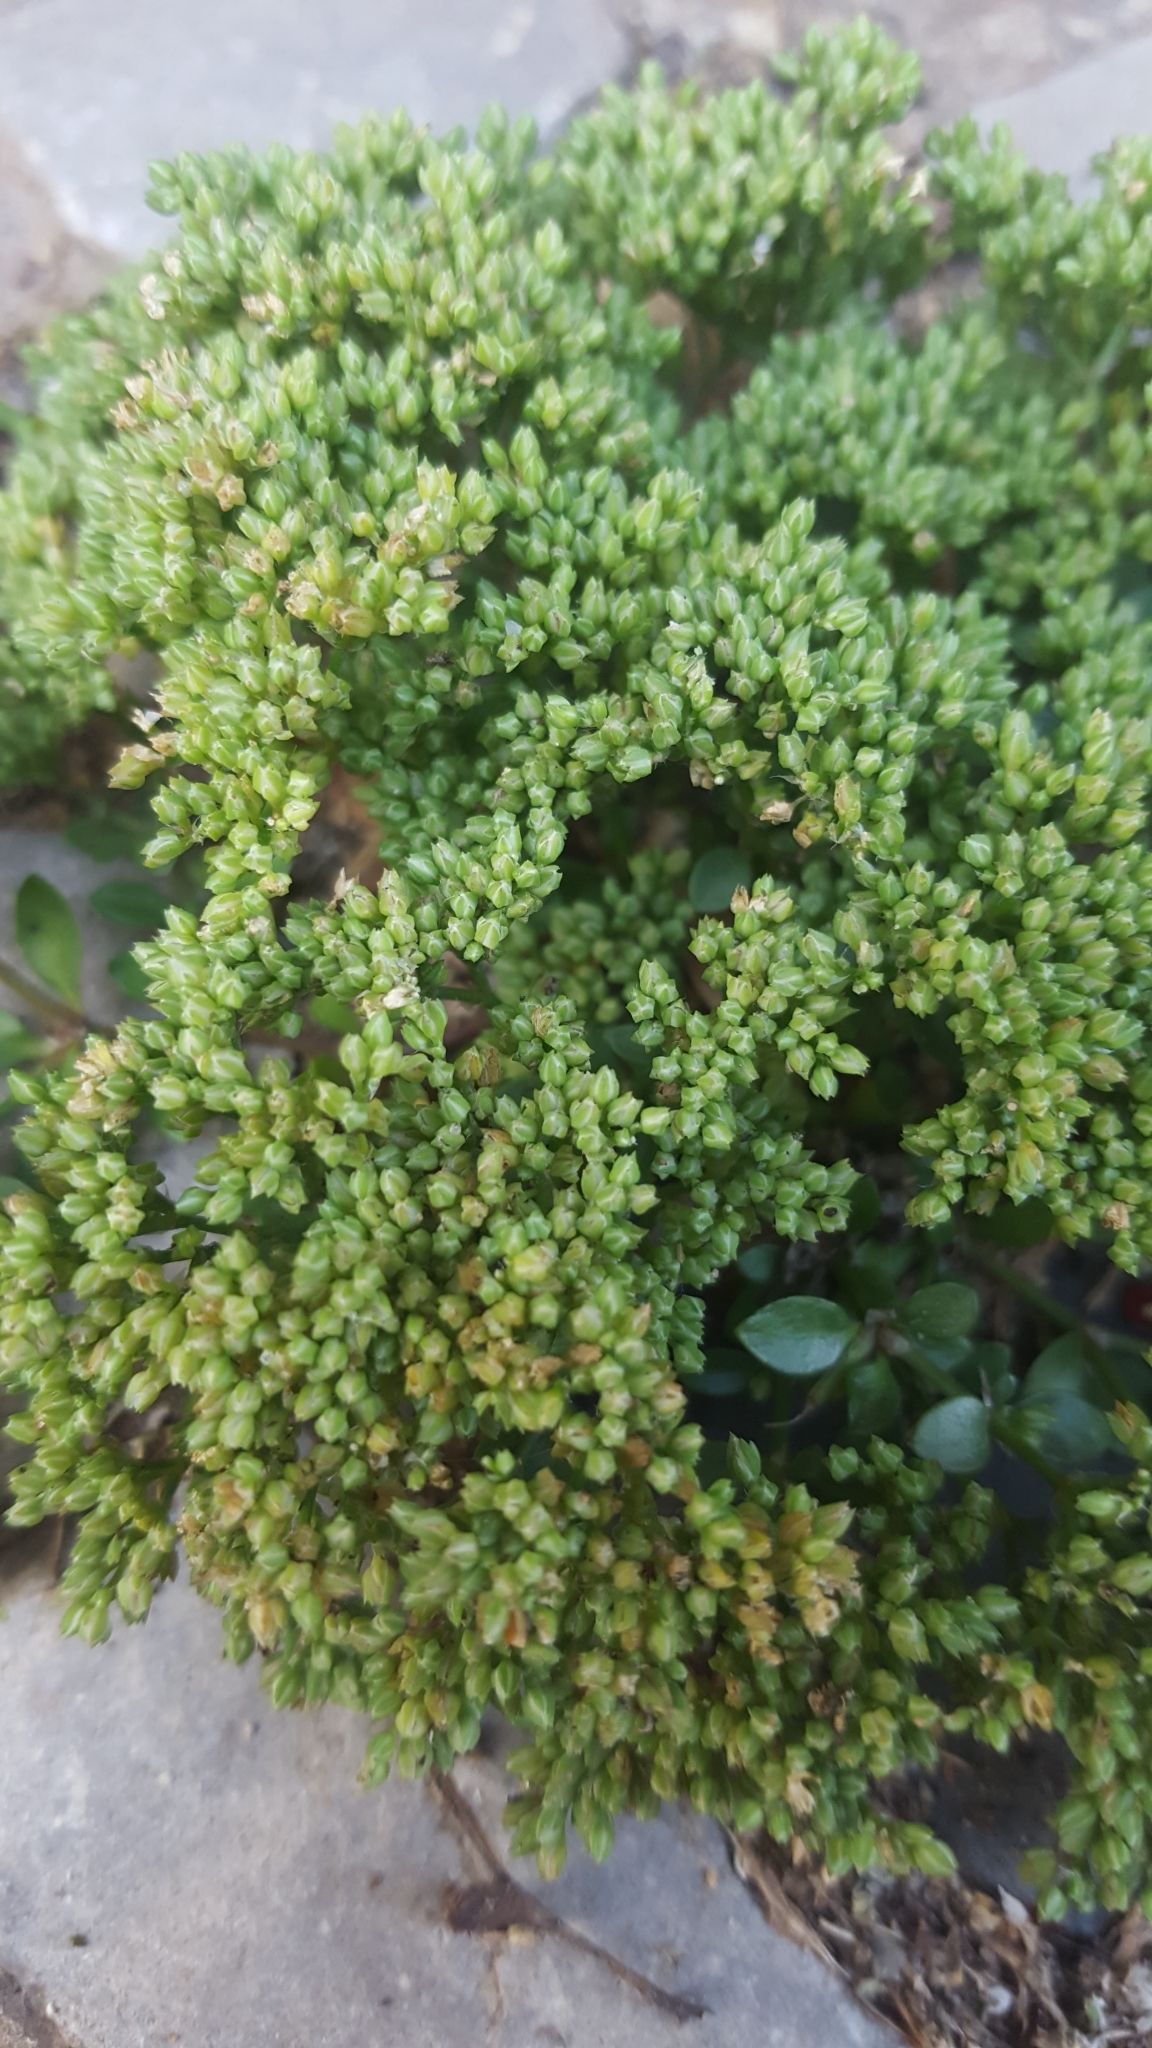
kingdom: Plantae
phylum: Tracheophyta
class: Magnoliopsida
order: Caryophyllales
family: Caryophyllaceae
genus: Polycarpon
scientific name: Polycarpon tetraphyllum
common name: Four-leaved all-seed
